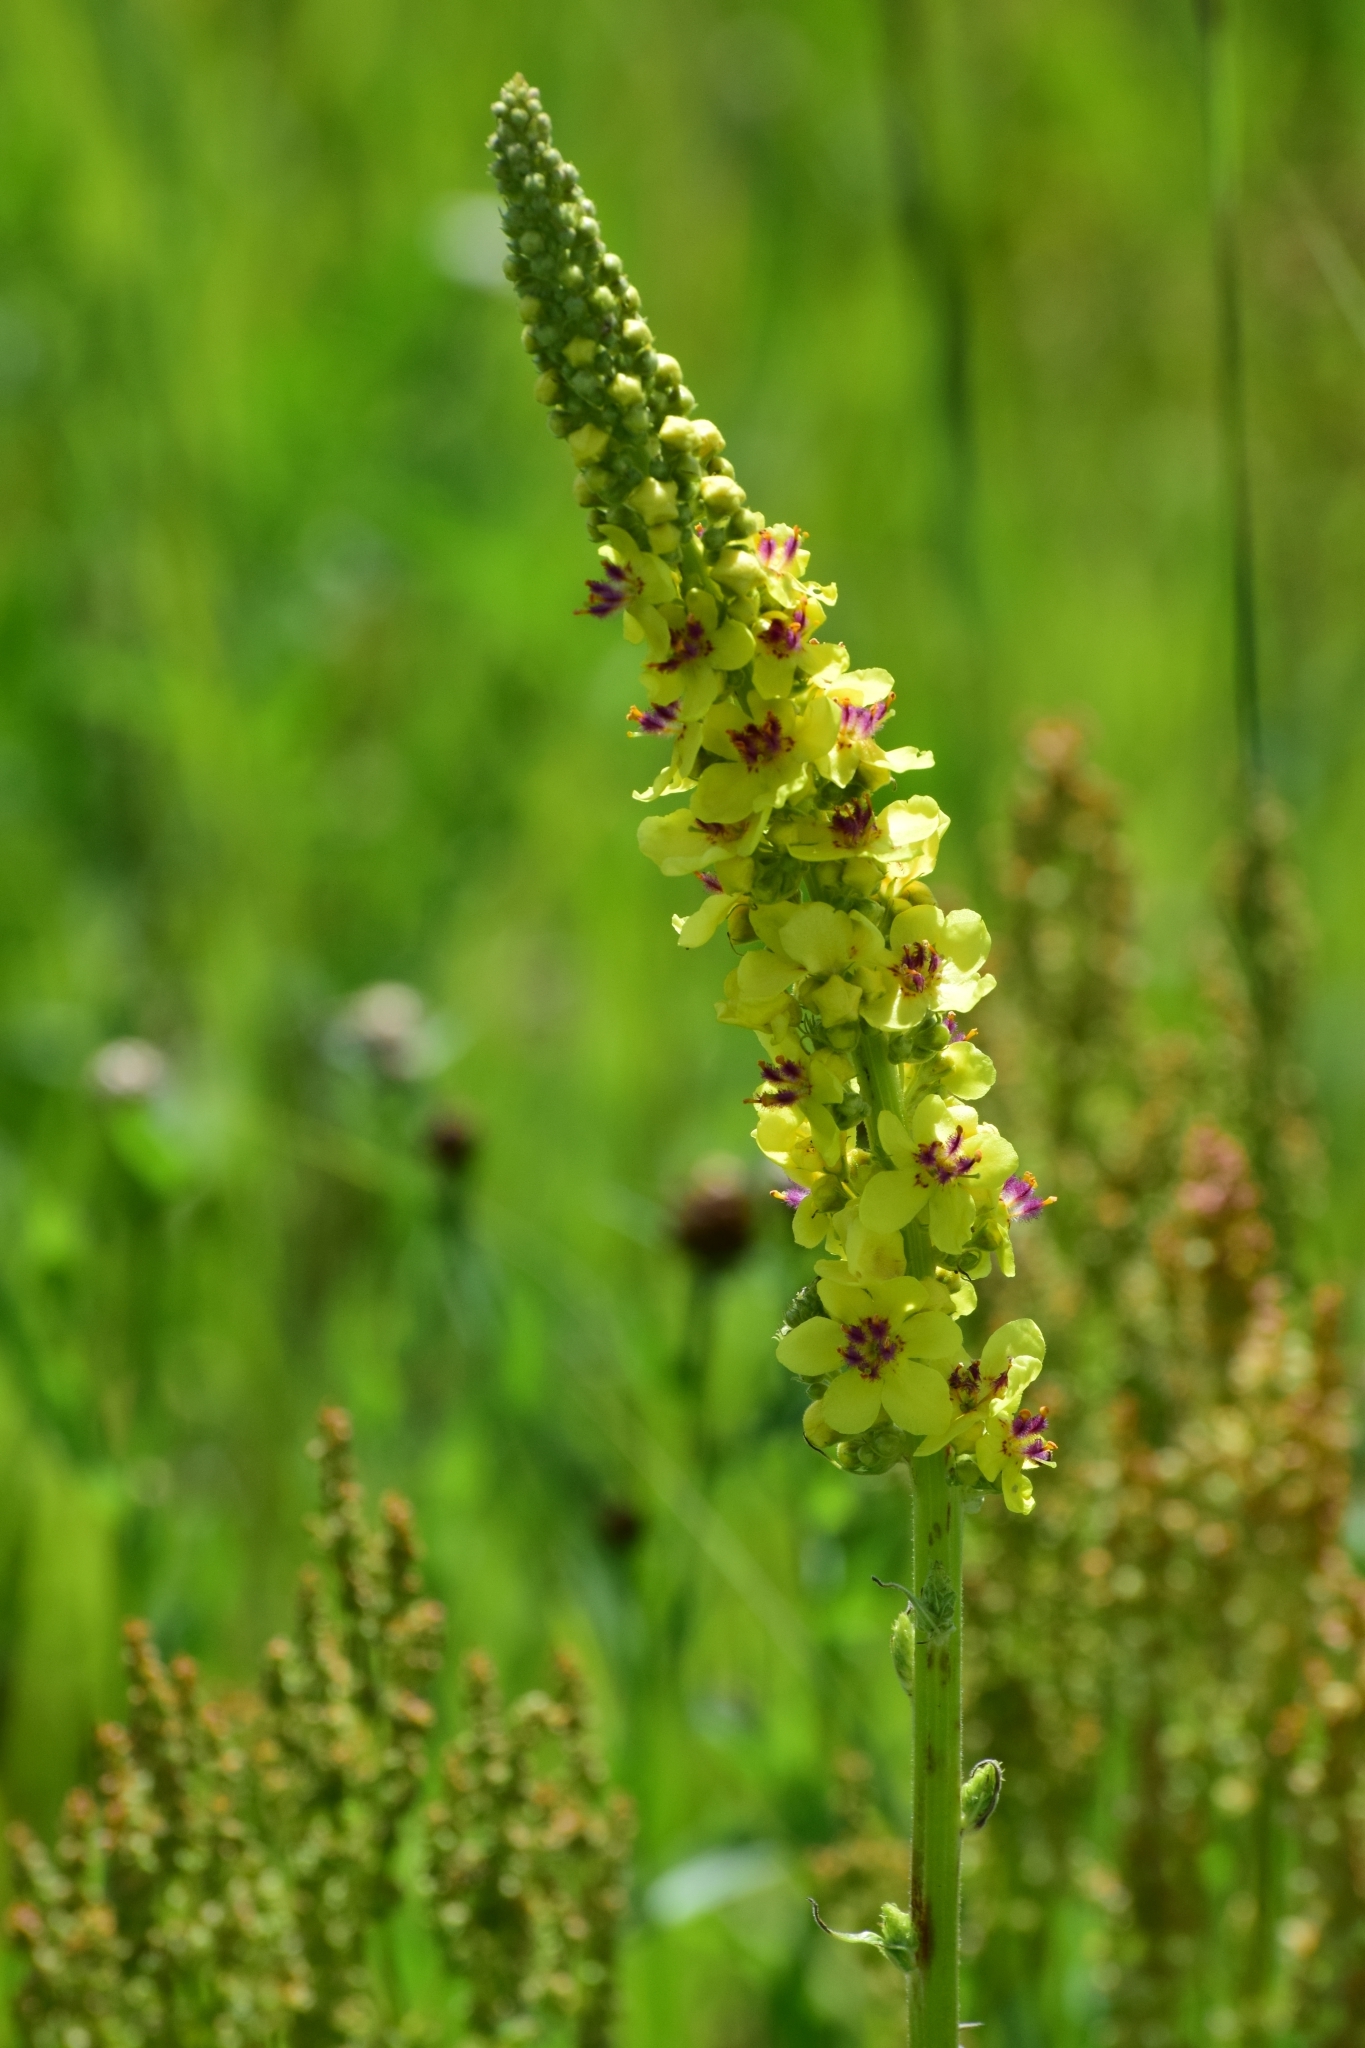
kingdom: Plantae
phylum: Tracheophyta
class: Magnoliopsida
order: Lamiales
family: Scrophulariaceae
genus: Verbascum
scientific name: Verbascum nigrum
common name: Dark mullein
